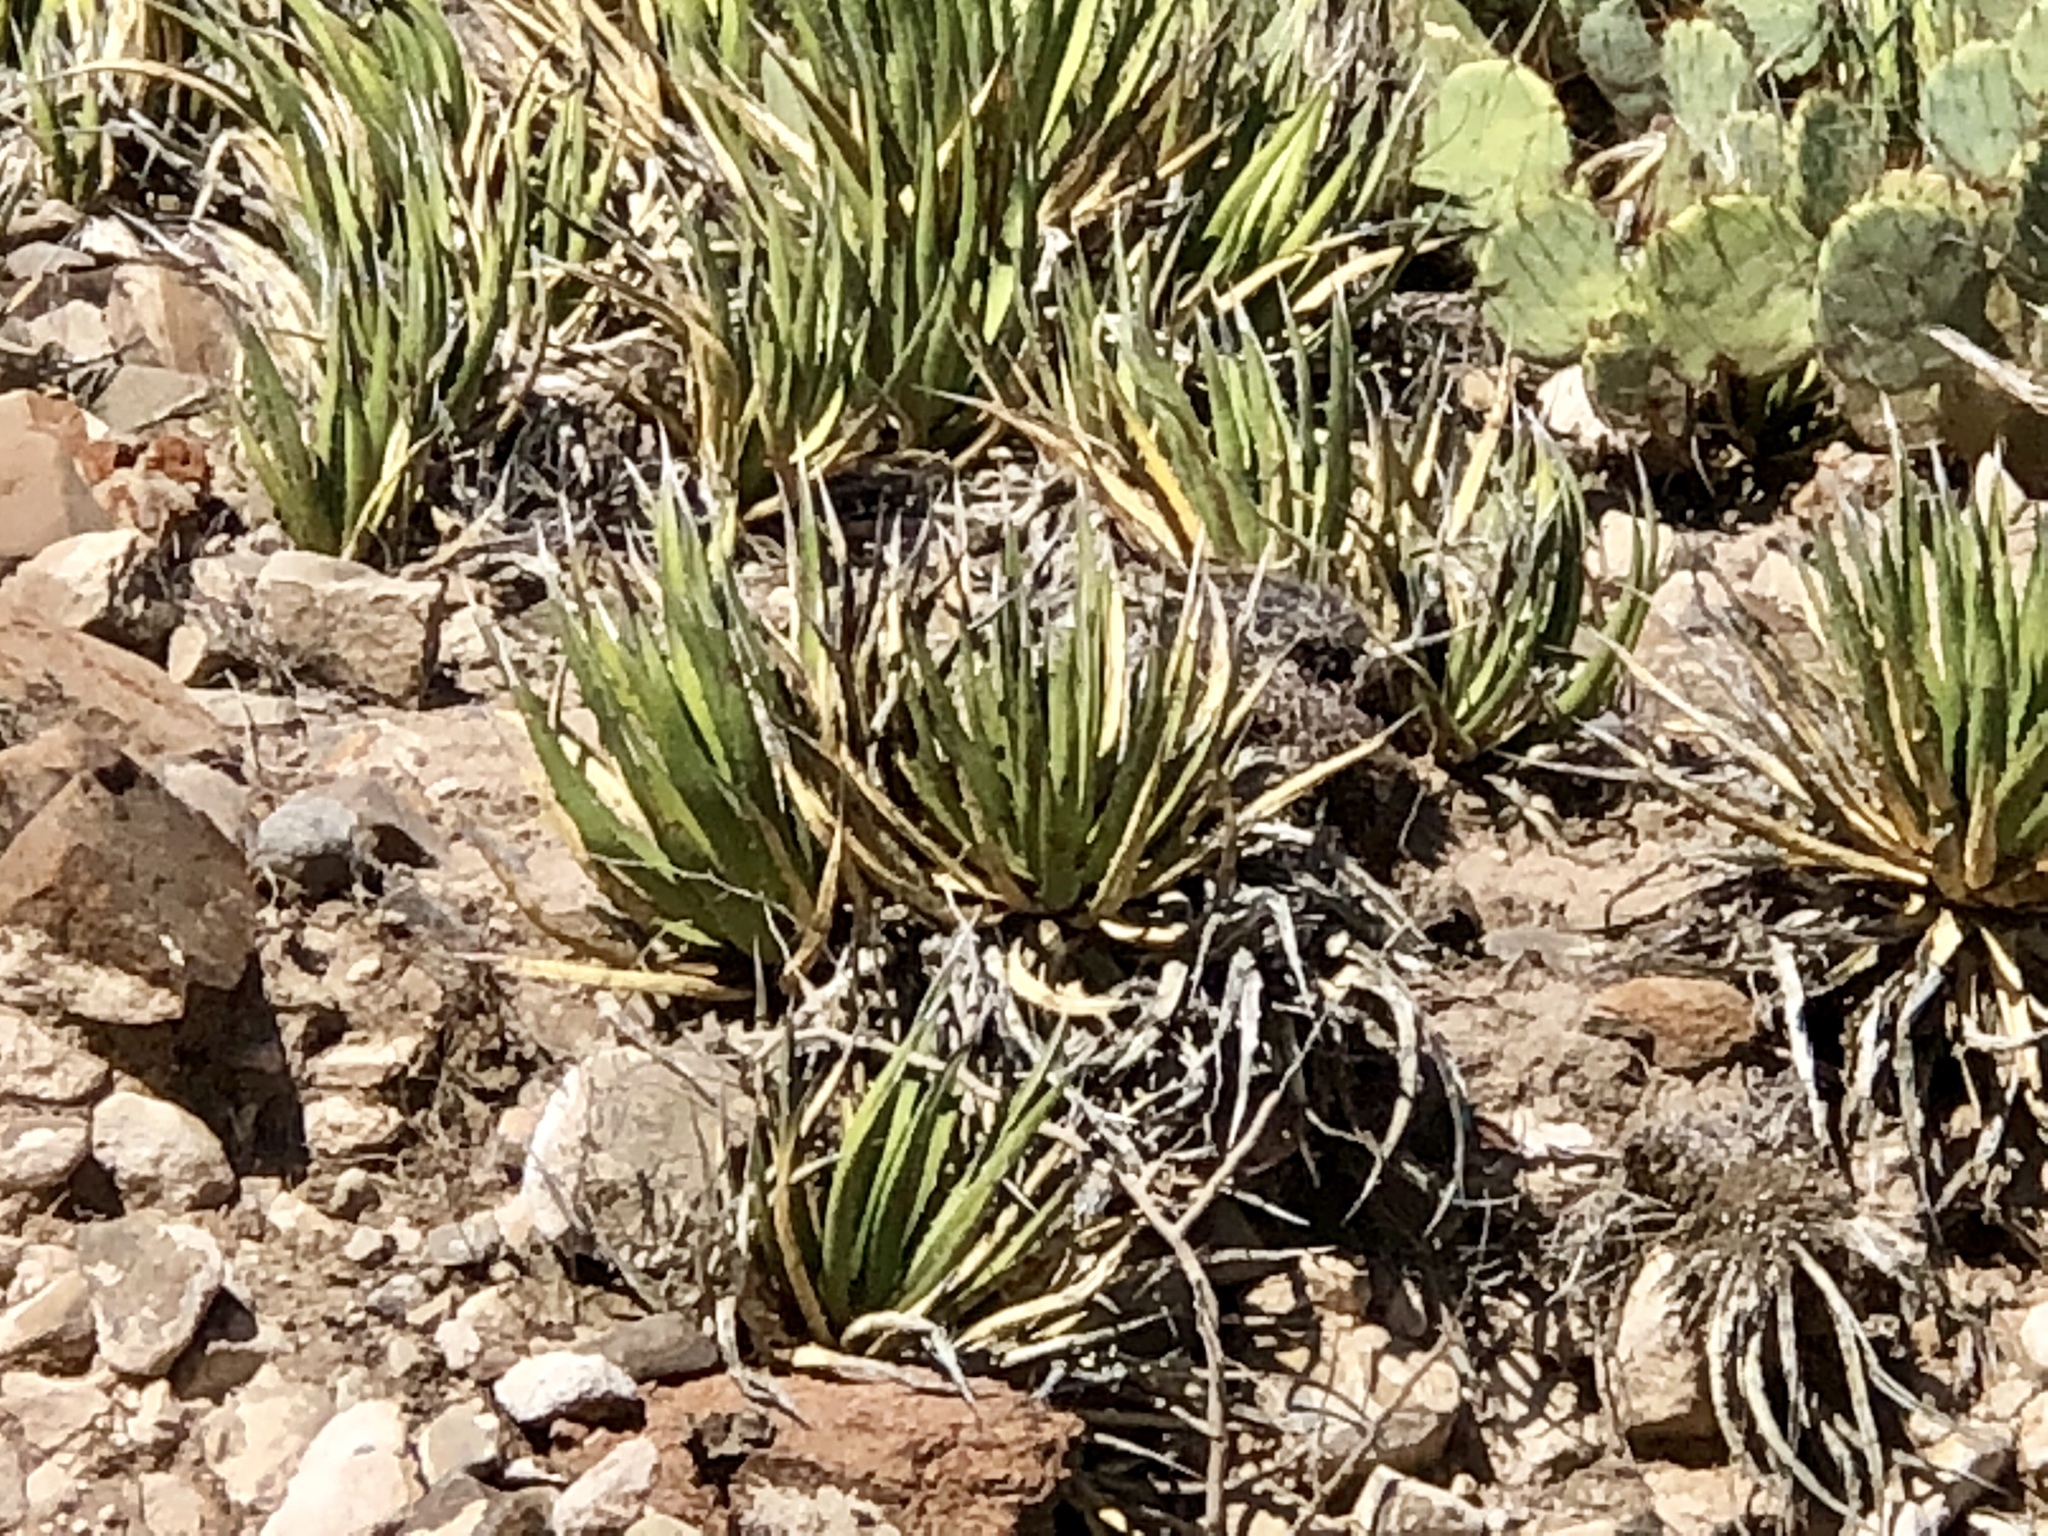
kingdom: Plantae
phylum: Tracheophyta
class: Liliopsida
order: Asparagales
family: Asparagaceae
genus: Agave
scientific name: Agave lechuguilla
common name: Lecheguilla agave
